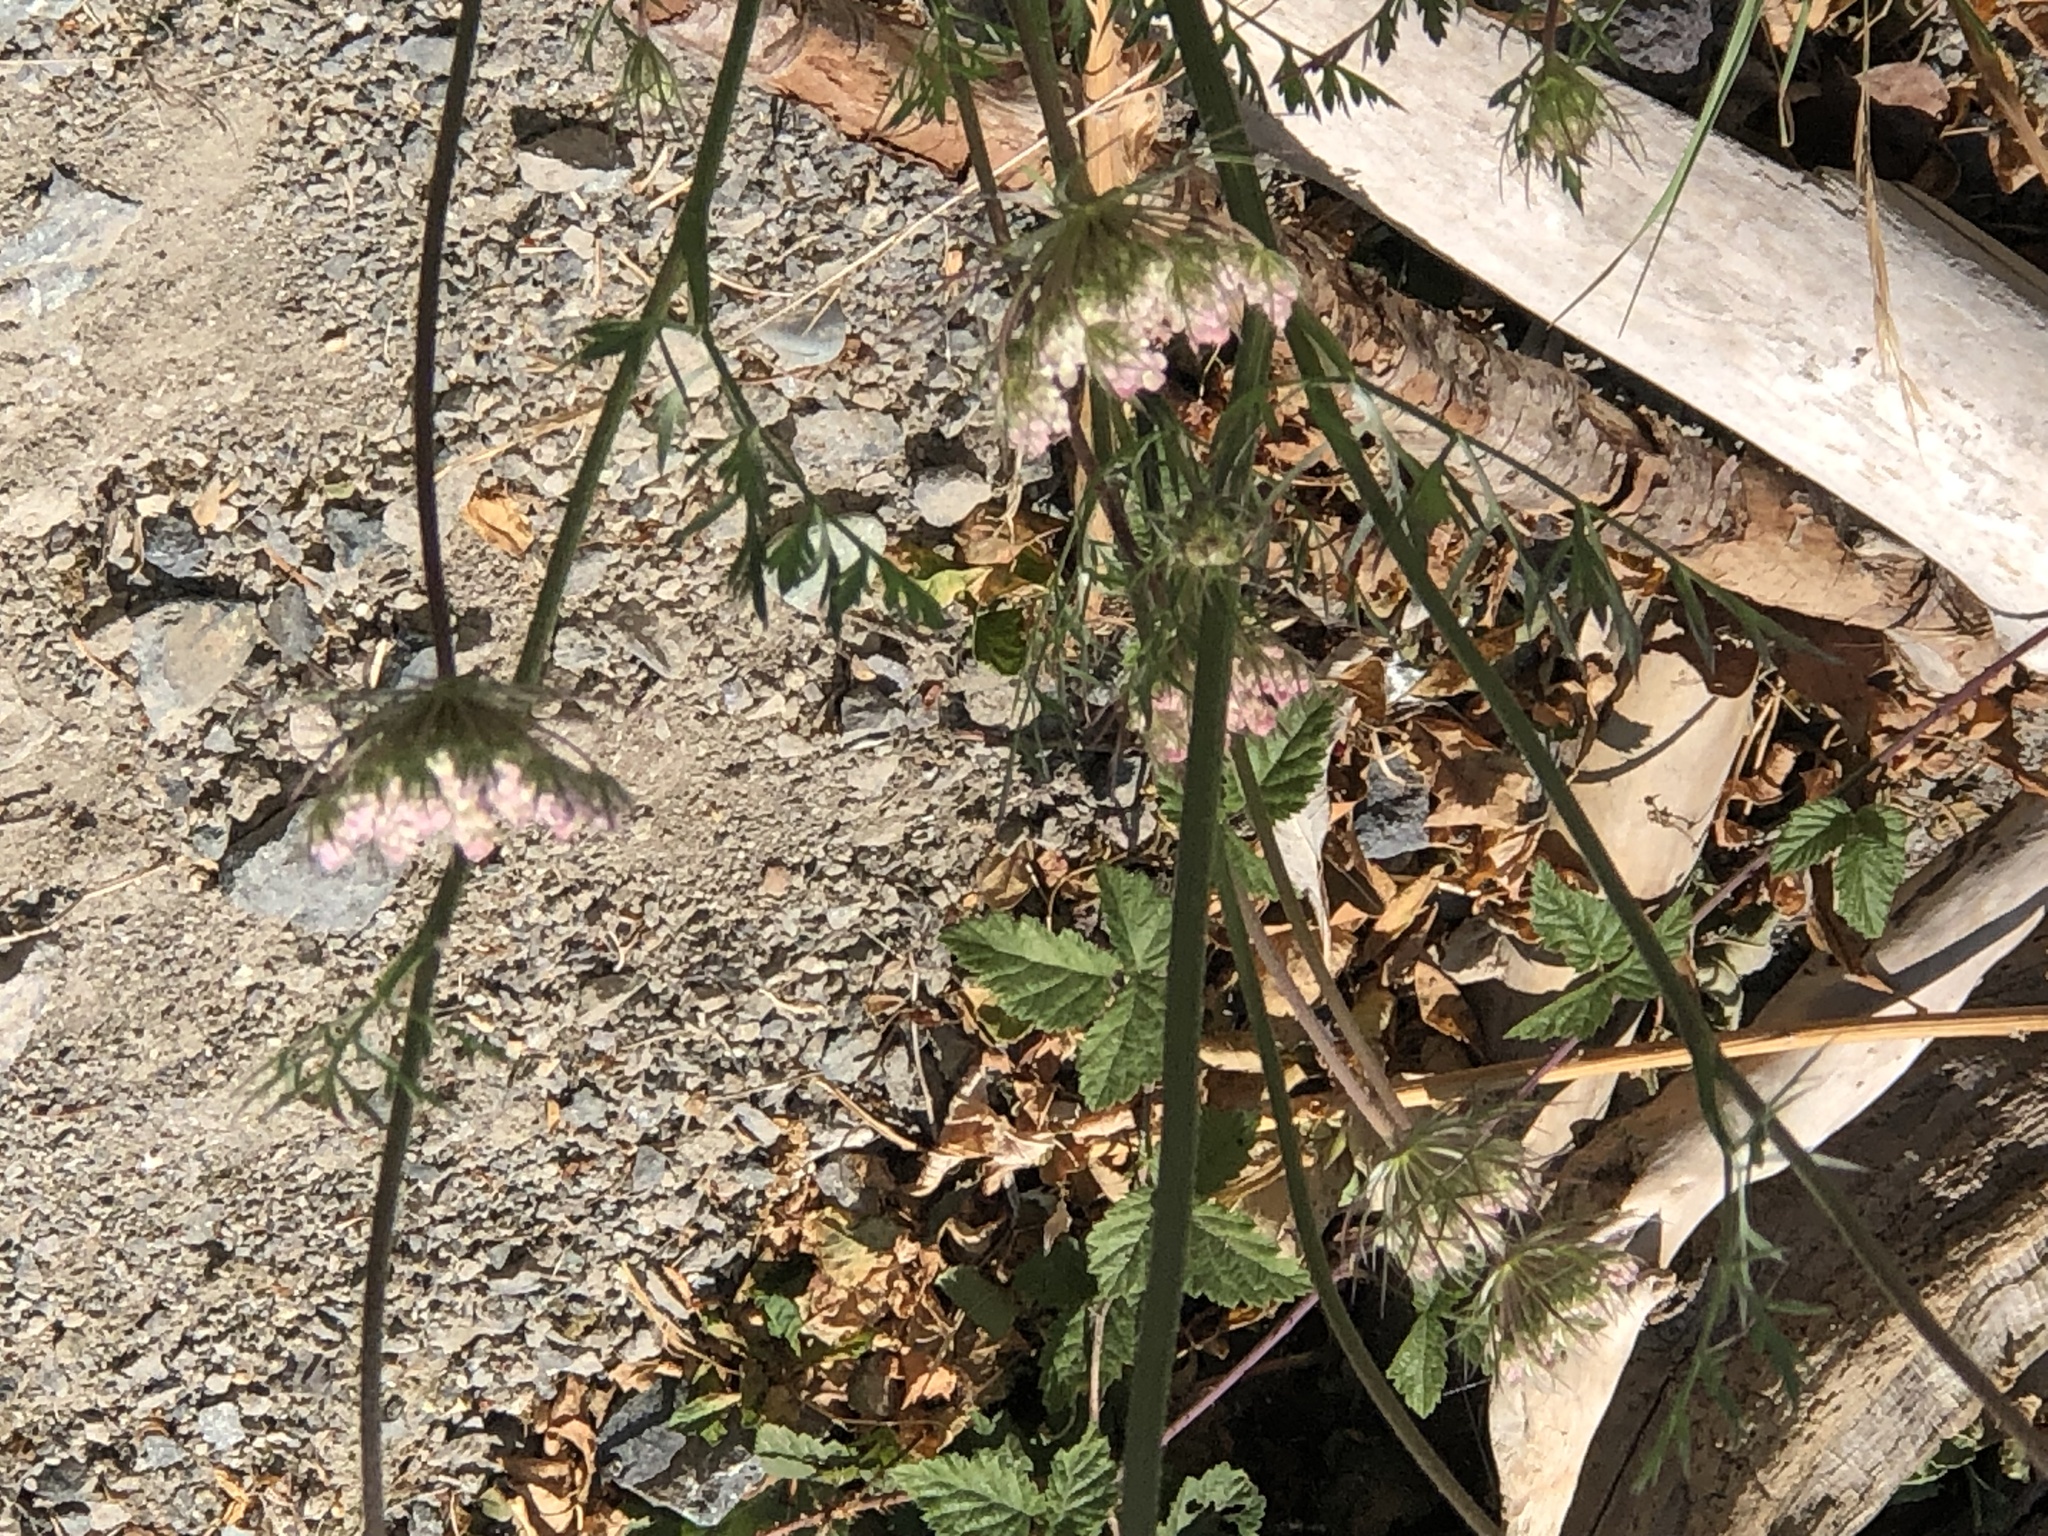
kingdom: Plantae
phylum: Tracheophyta
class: Magnoliopsida
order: Apiales
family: Apiaceae
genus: Daucus
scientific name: Daucus carota
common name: Wild carrot
